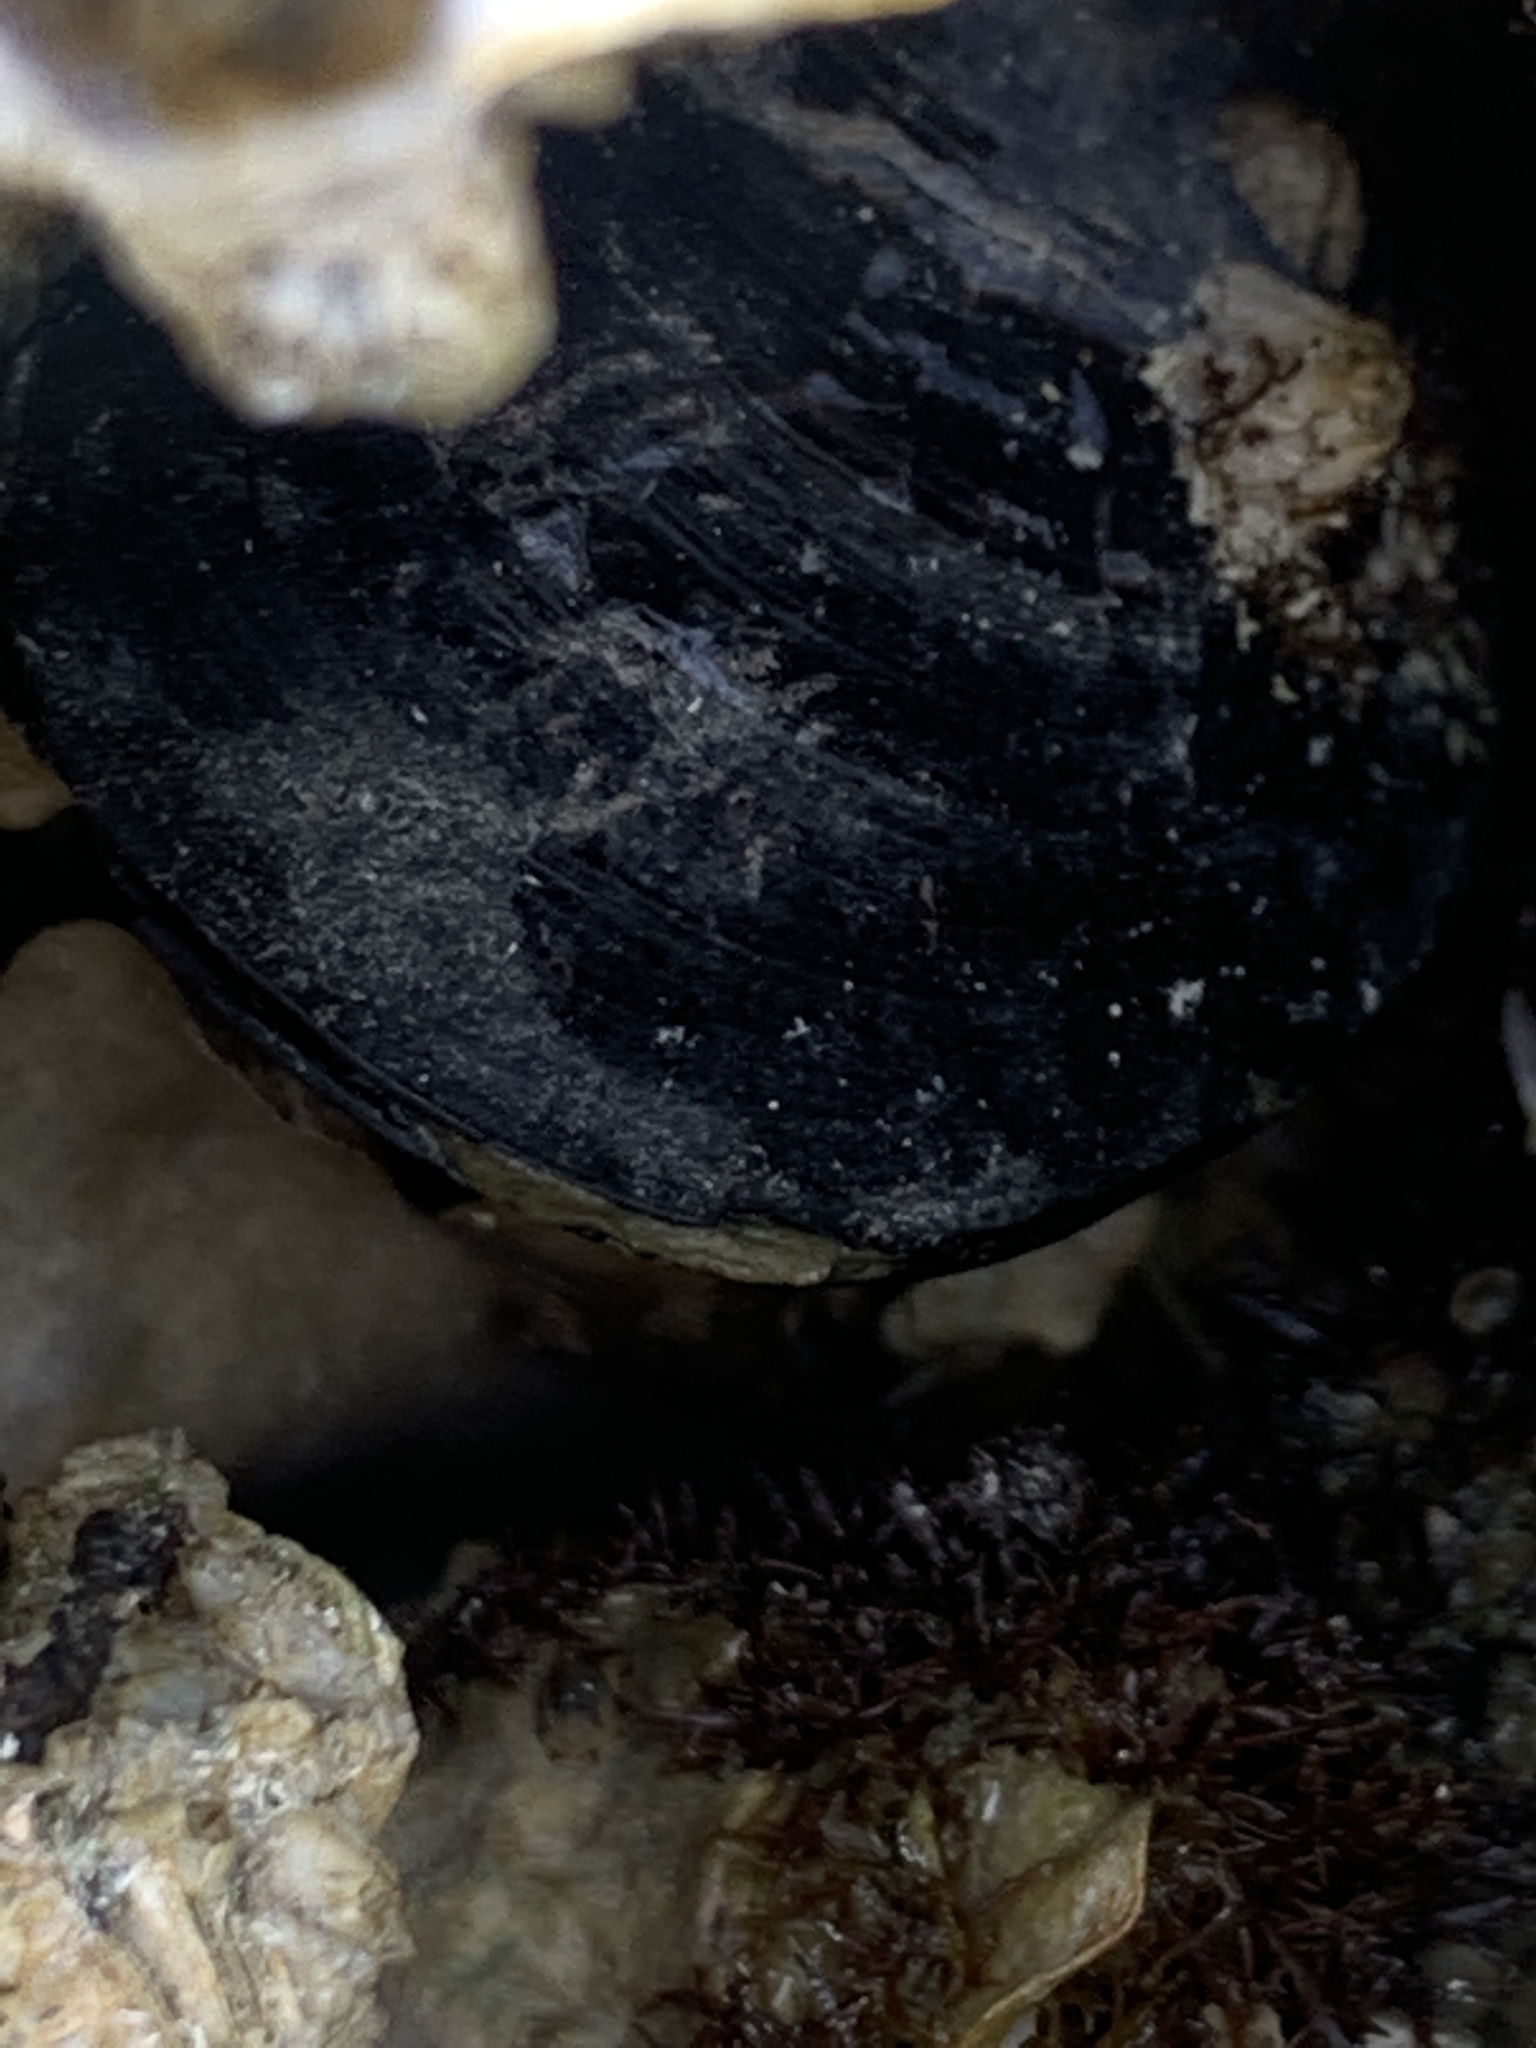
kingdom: Animalia
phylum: Mollusca
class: Bivalvia
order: Mytilida
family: Mytilidae
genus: Mytilus
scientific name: Mytilus
